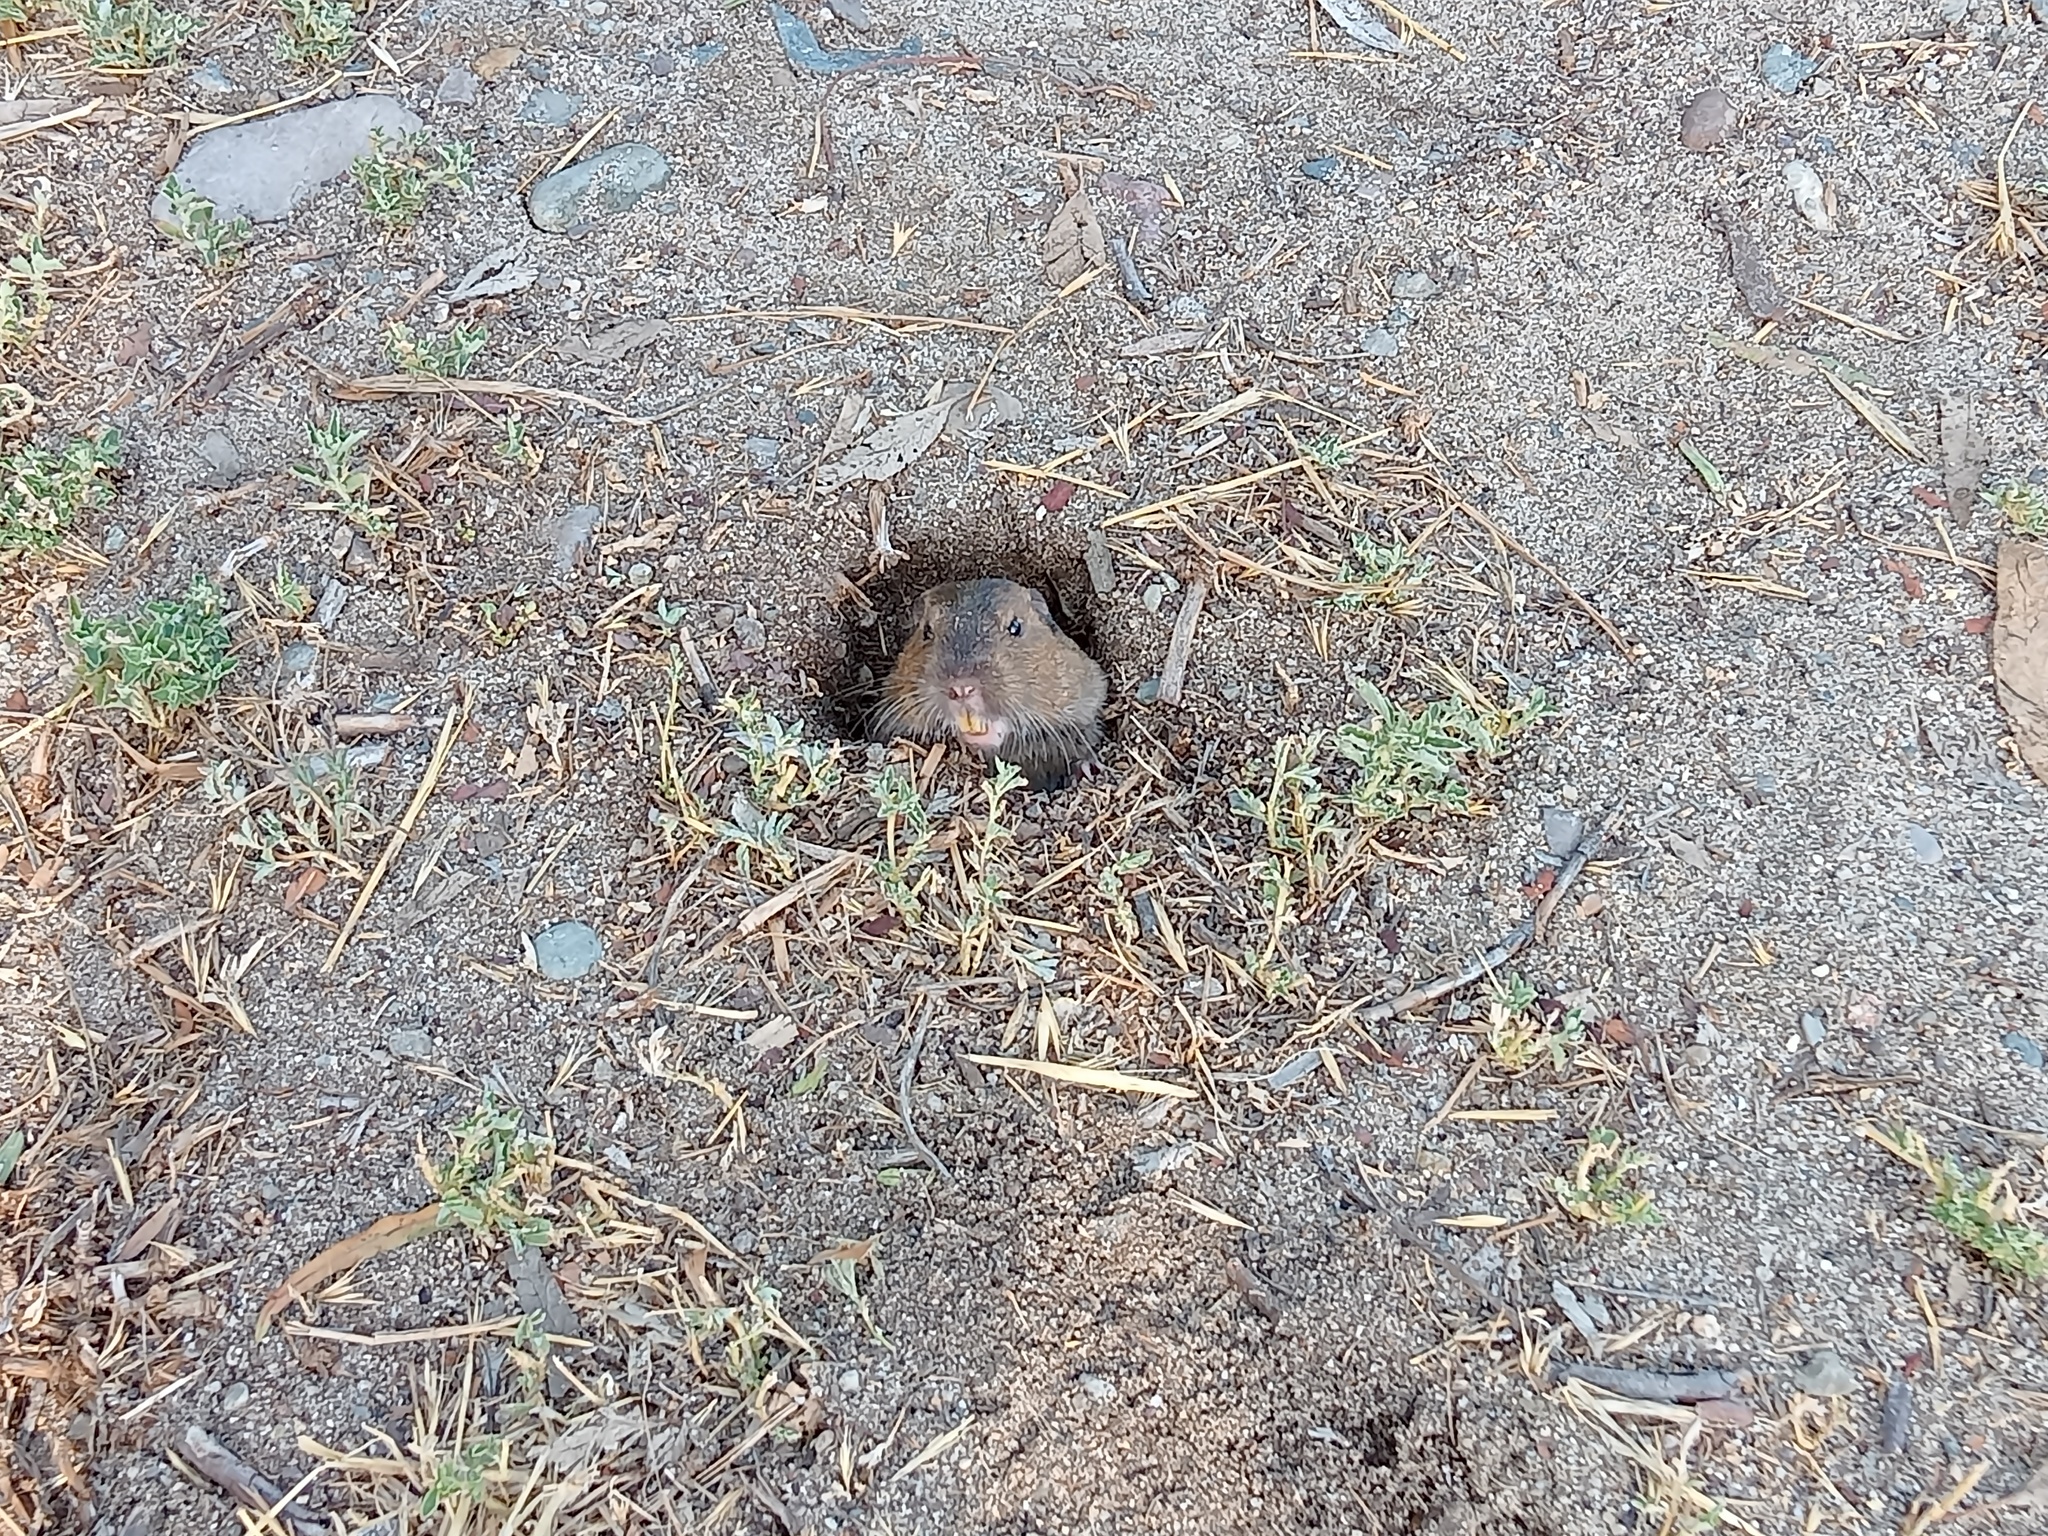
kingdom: Animalia
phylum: Chordata
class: Mammalia
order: Rodentia
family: Geomyidae
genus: Thomomys
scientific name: Thomomys bottae
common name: Botta's pocket gopher
